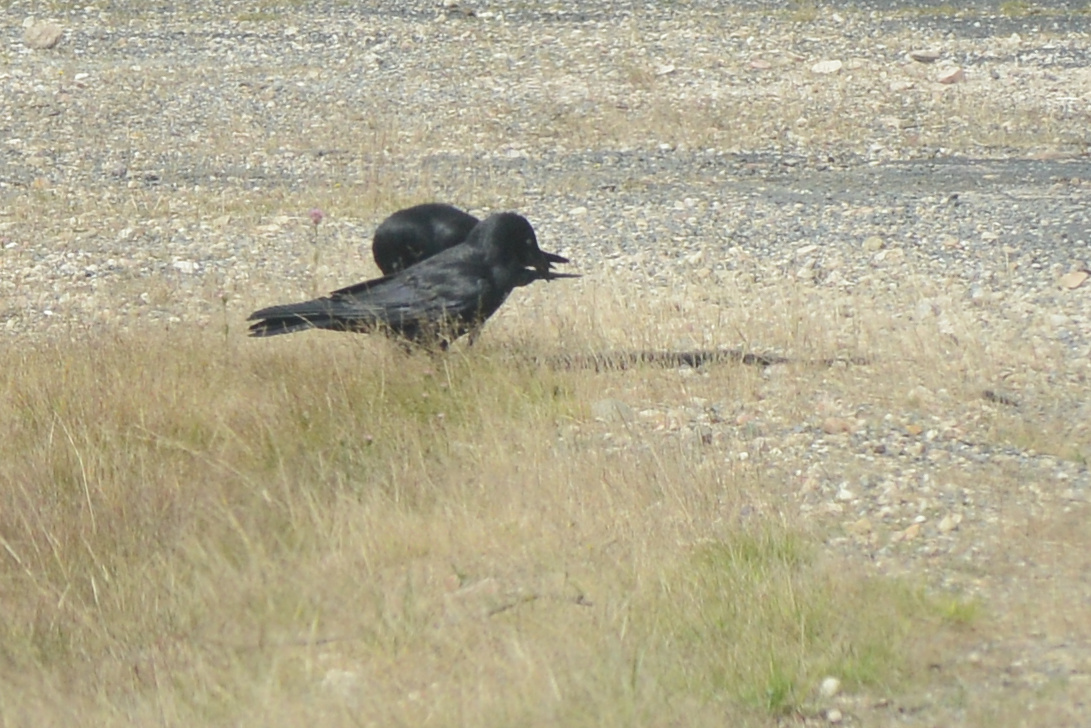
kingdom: Animalia
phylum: Chordata
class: Aves
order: Passeriformes
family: Corvidae
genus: Corvus
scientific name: Corvus tasmanicus
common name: Forest raven
